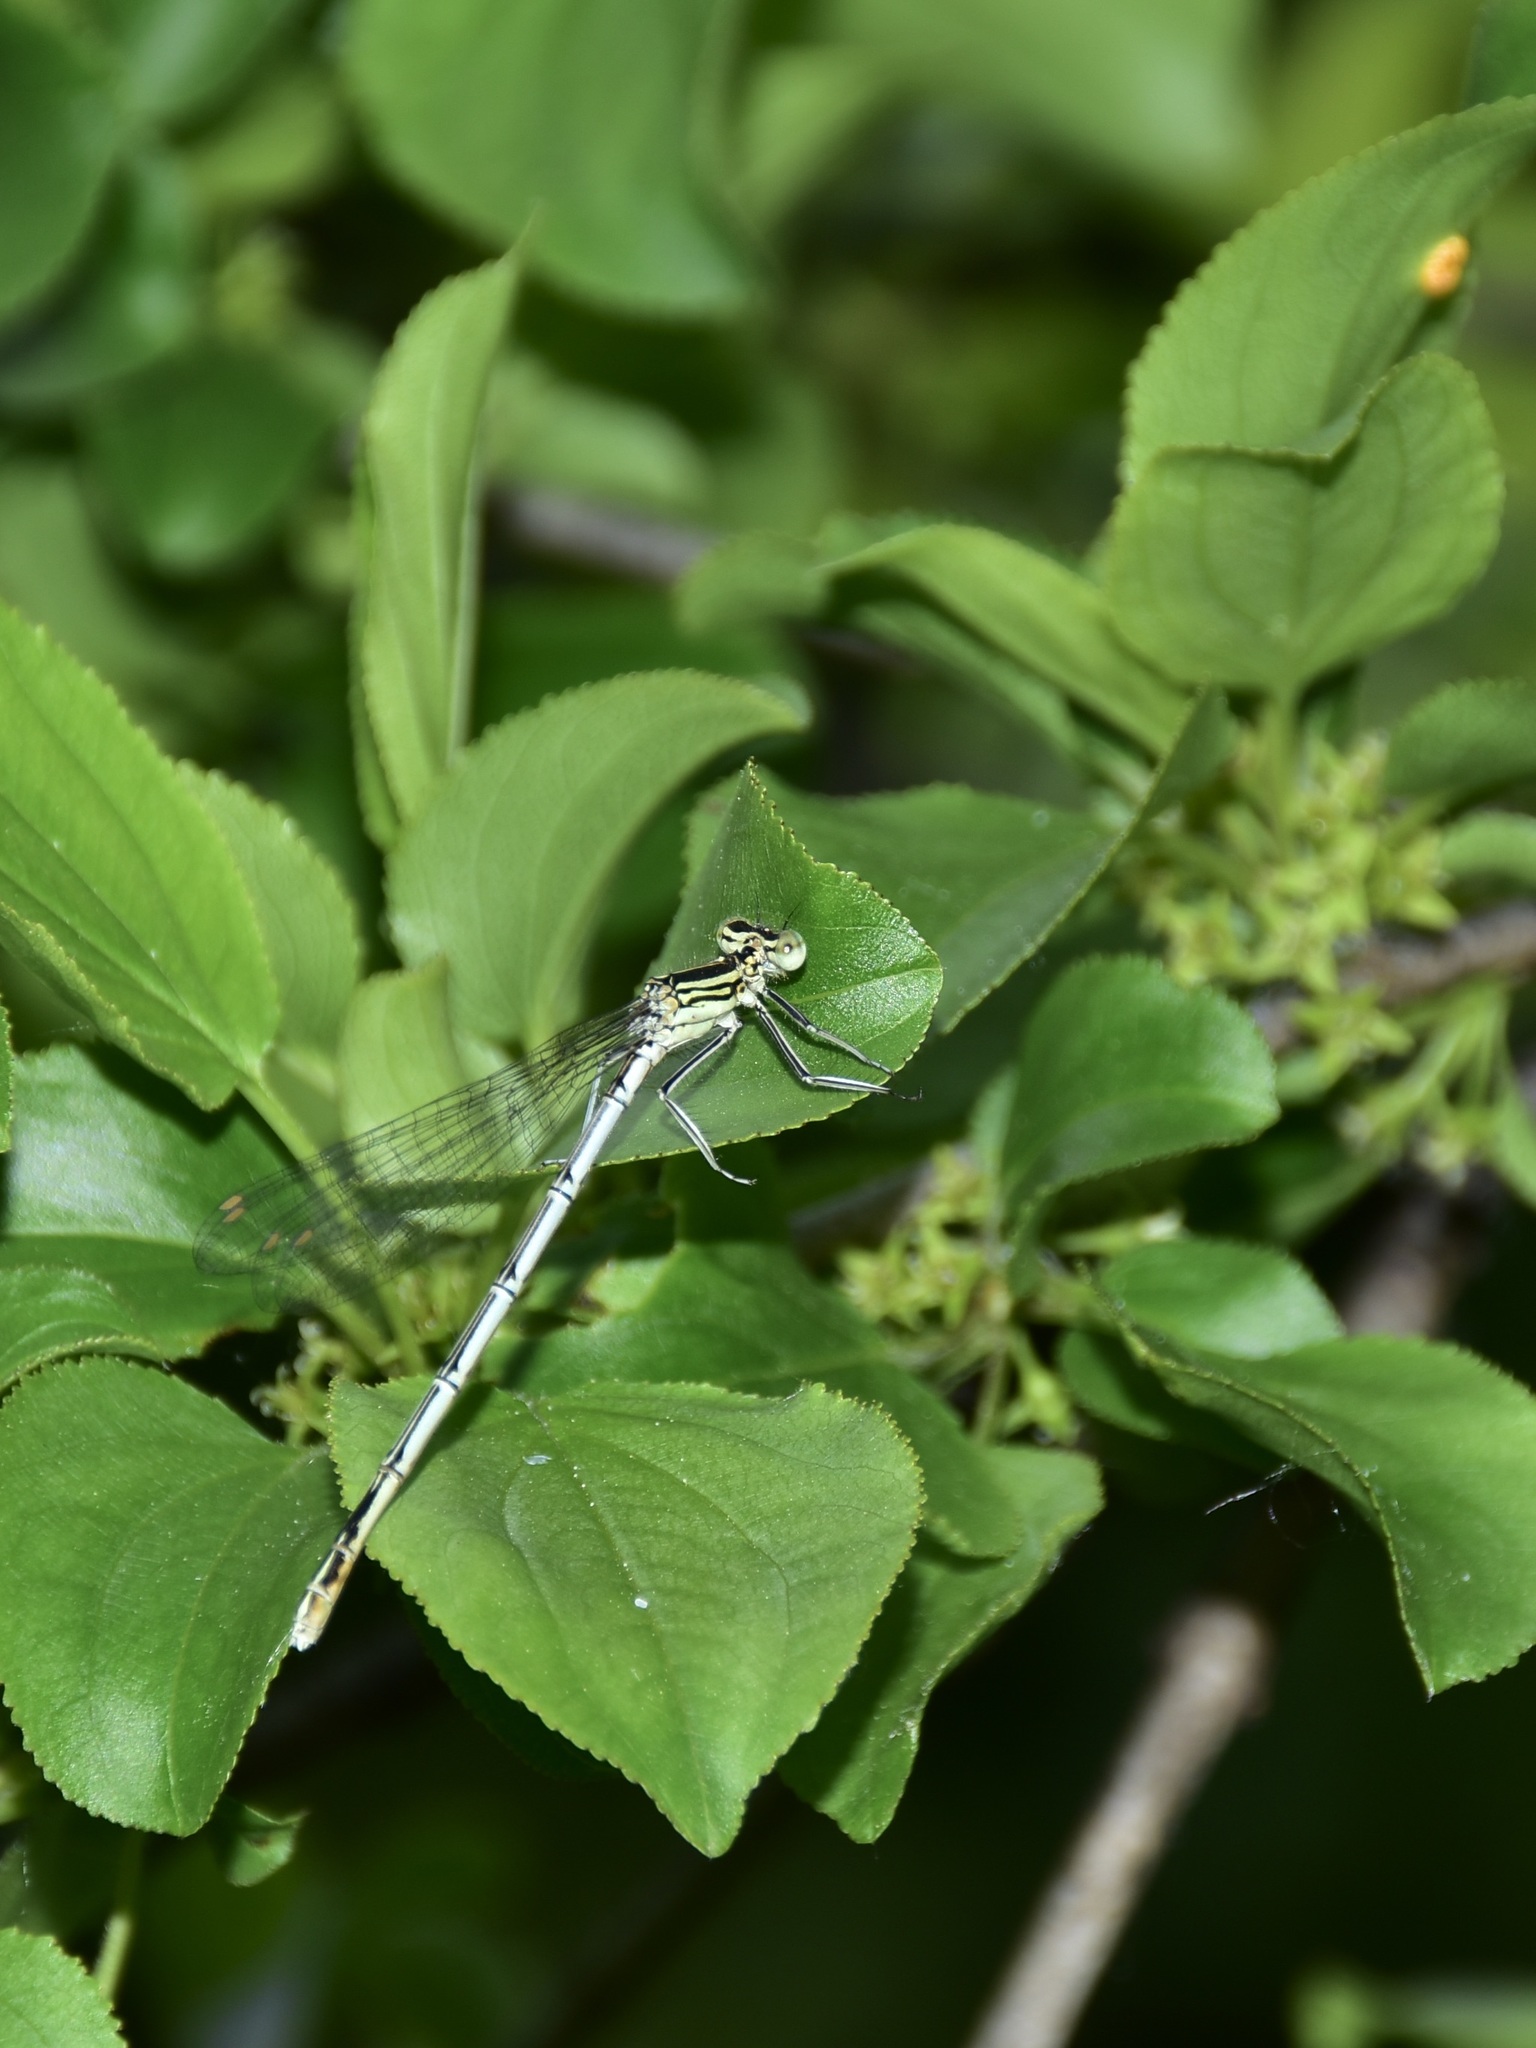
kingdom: Animalia
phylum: Arthropoda
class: Insecta
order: Odonata
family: Platycnemididae
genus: Platycnemis
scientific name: Platycnemis pennipes
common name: White-legged damselfly
